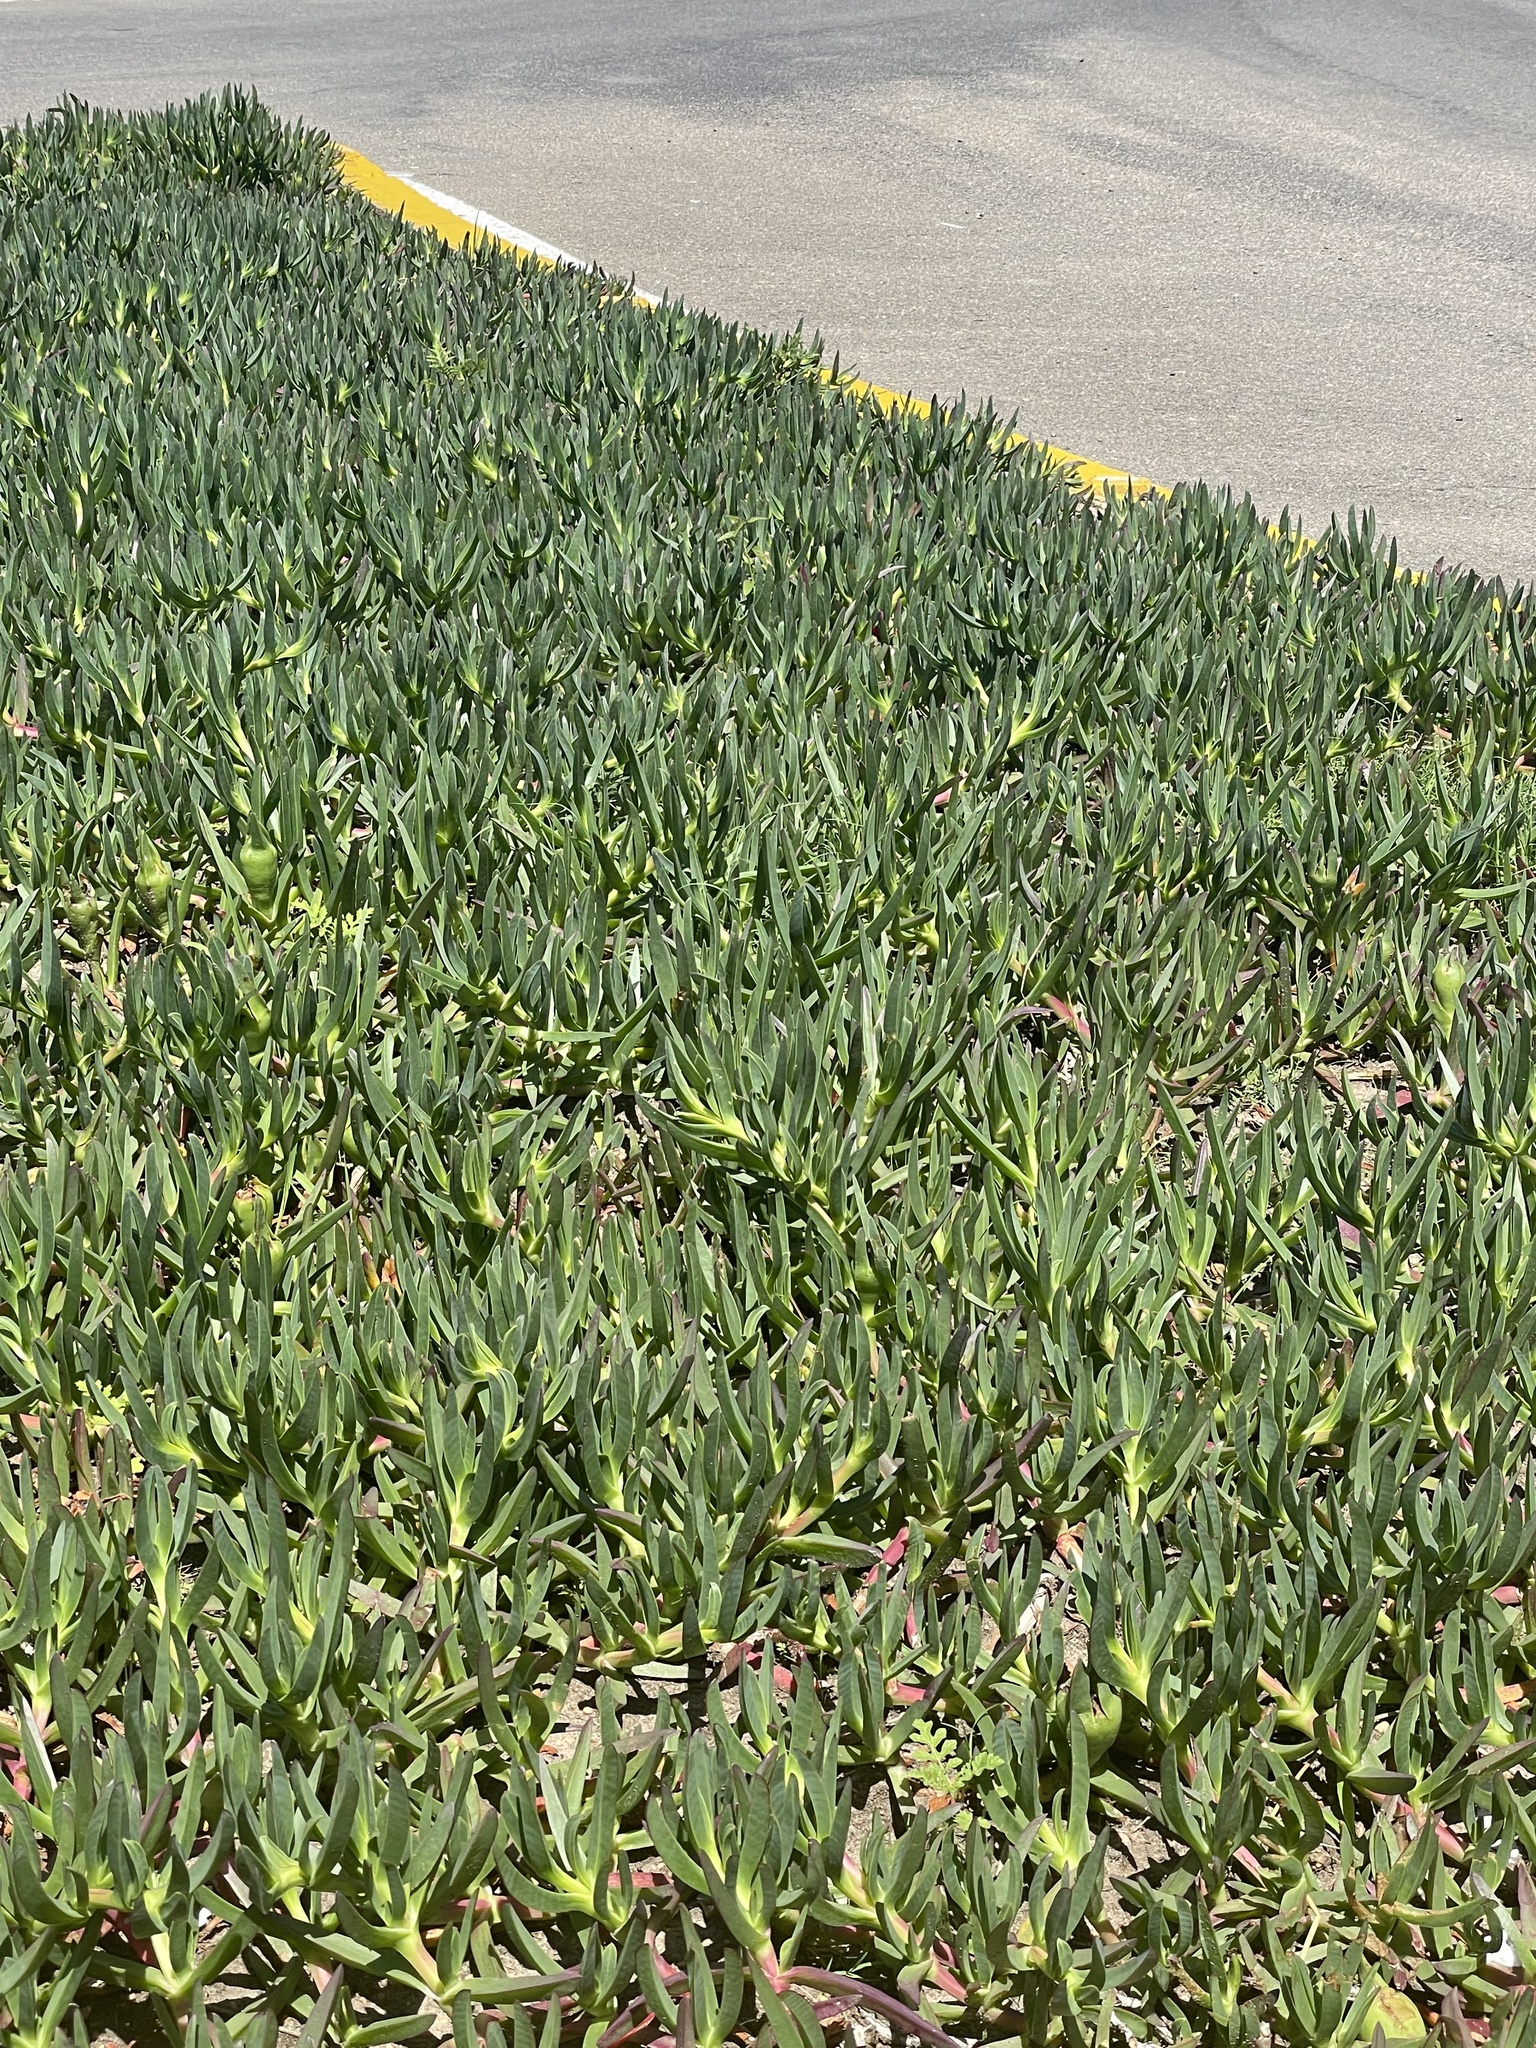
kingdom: Plantae
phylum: Tracheophyta
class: Magnoliopsida
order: Caryophyllales
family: Aizoaceae
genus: Carpobrotus
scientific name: Carpobrotus edulis
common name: Hottentot-fig
